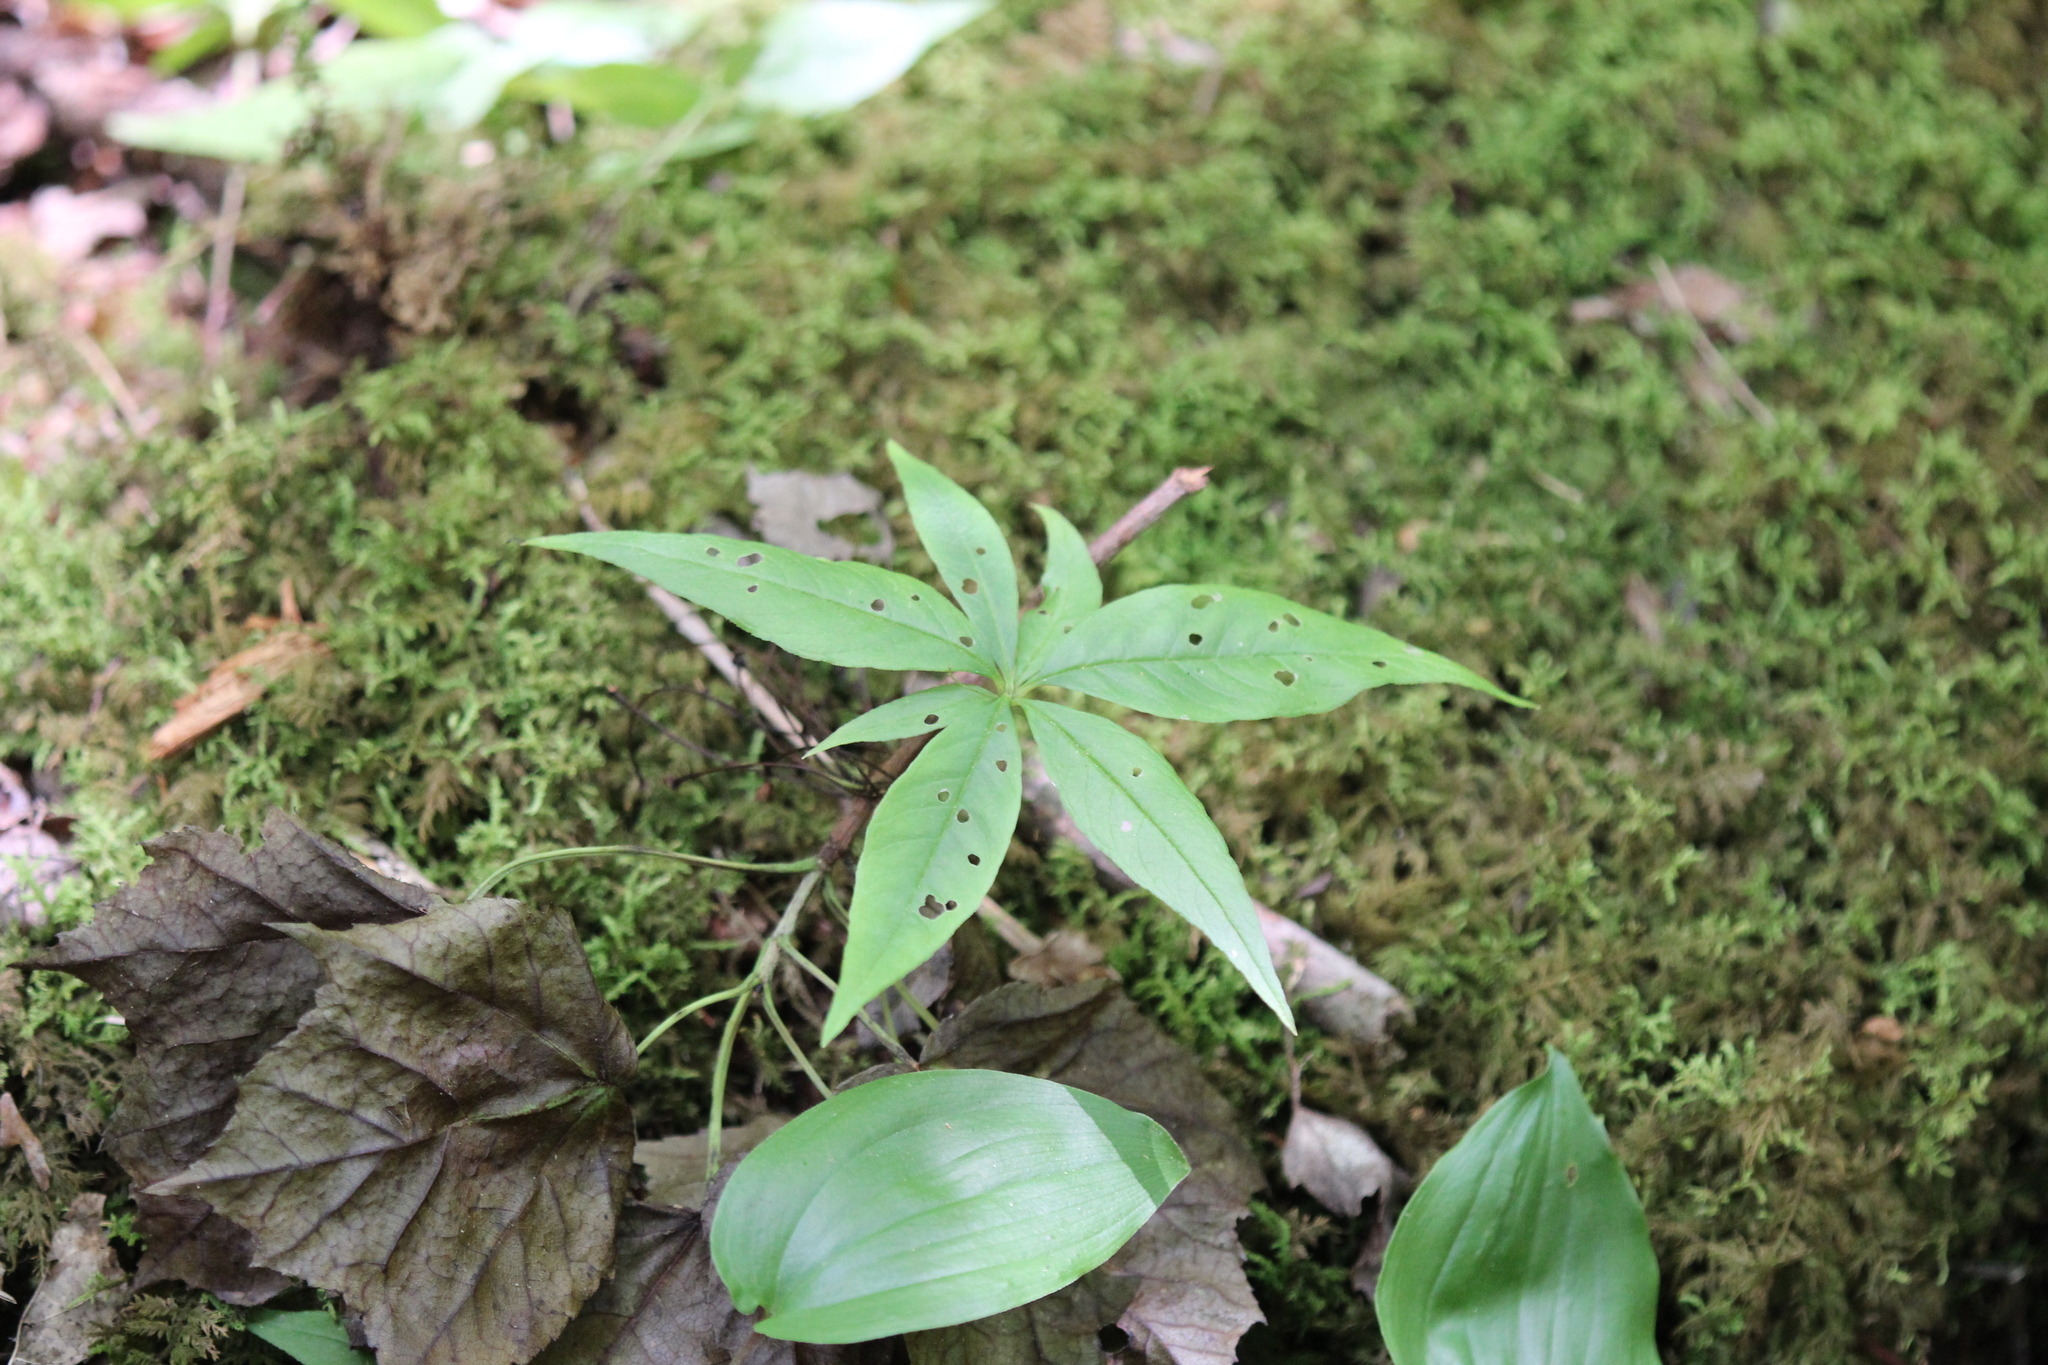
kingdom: Plantae
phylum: Tracheophyta
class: Magnoliopsida
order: Ericales
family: Primulaceae
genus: Lysimachia
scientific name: Lysimachia borealis
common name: American starflower
